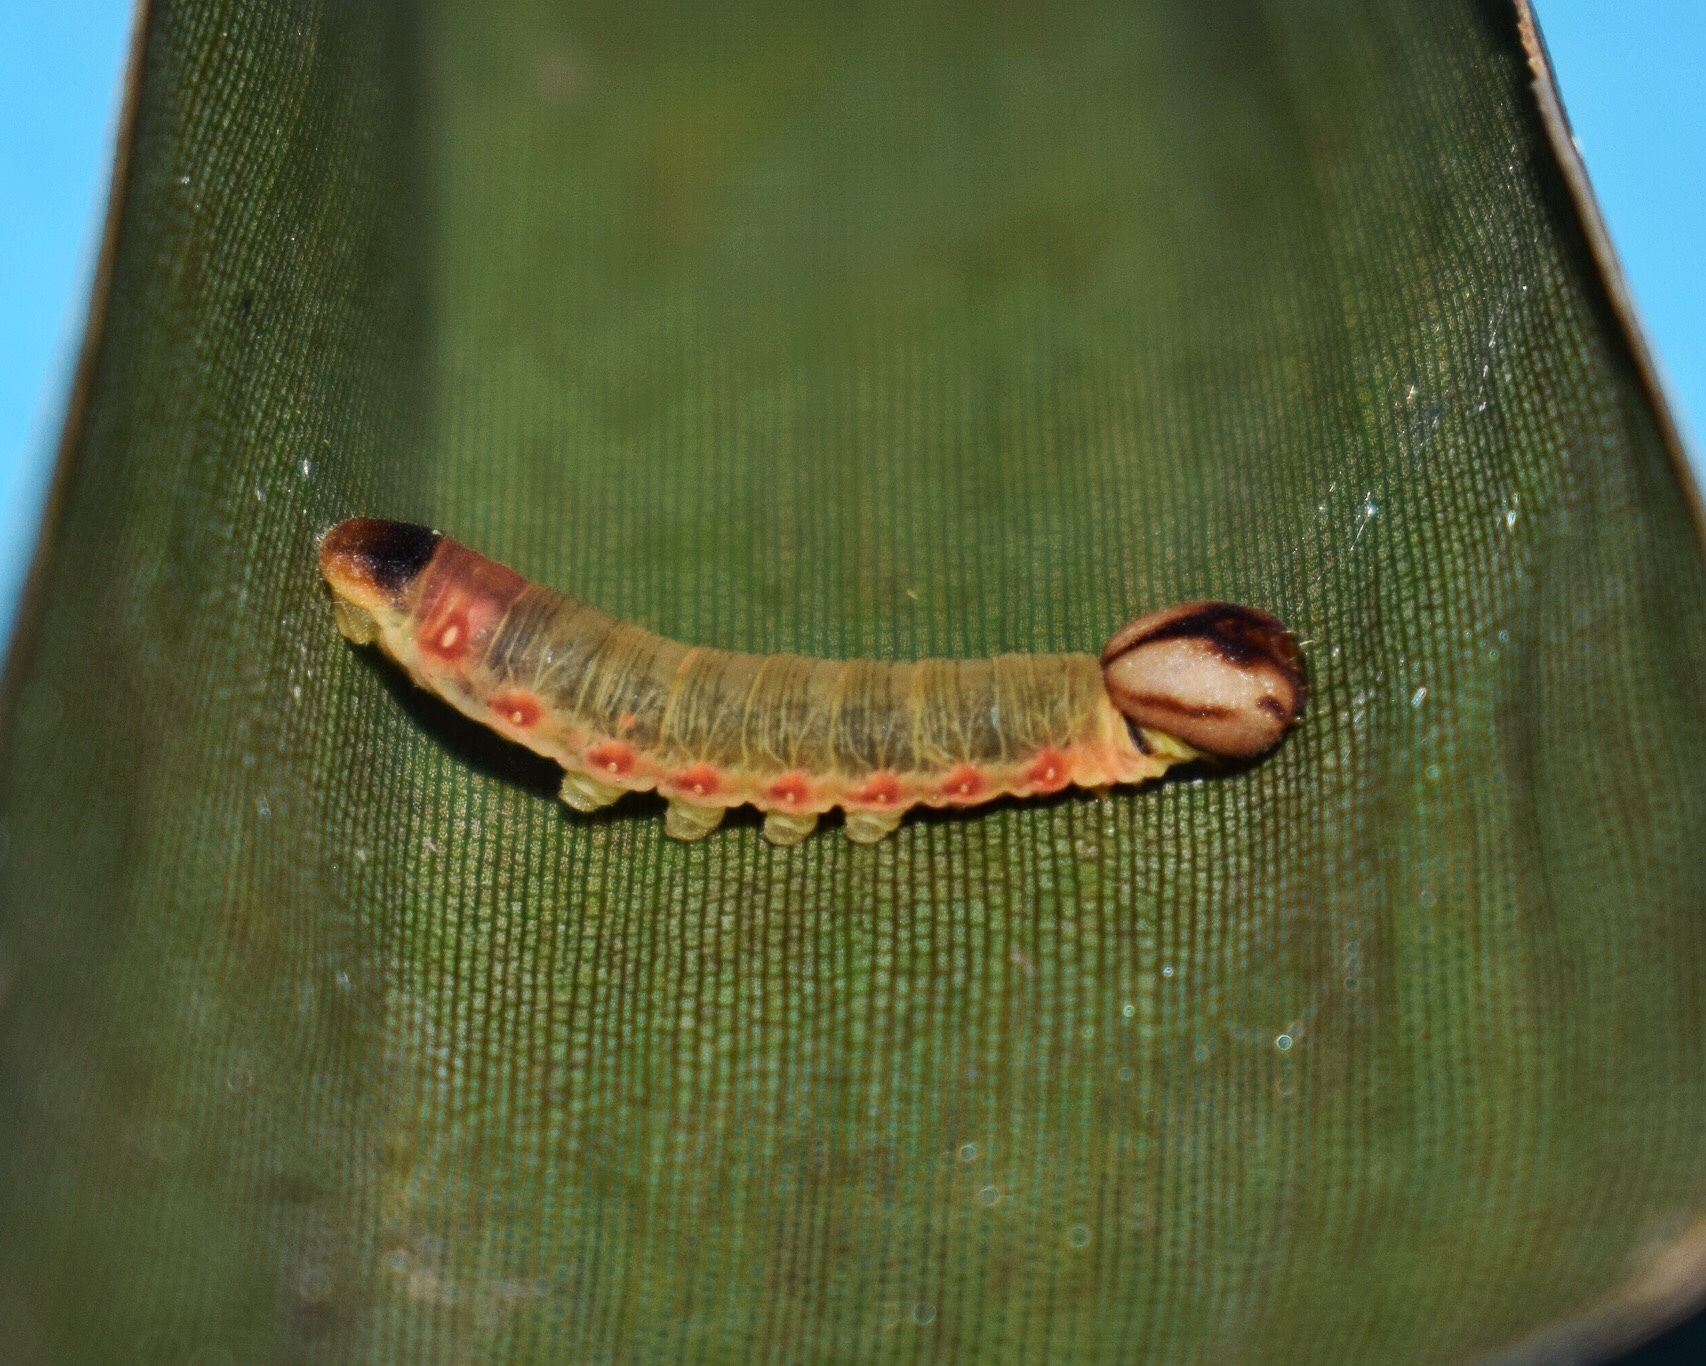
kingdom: Animalia
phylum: Arthropoda
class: Insecta
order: Lepidoptera
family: Hesperiidae
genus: Moltena
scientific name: Moltena fiara
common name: Banana-tree night-fighter
